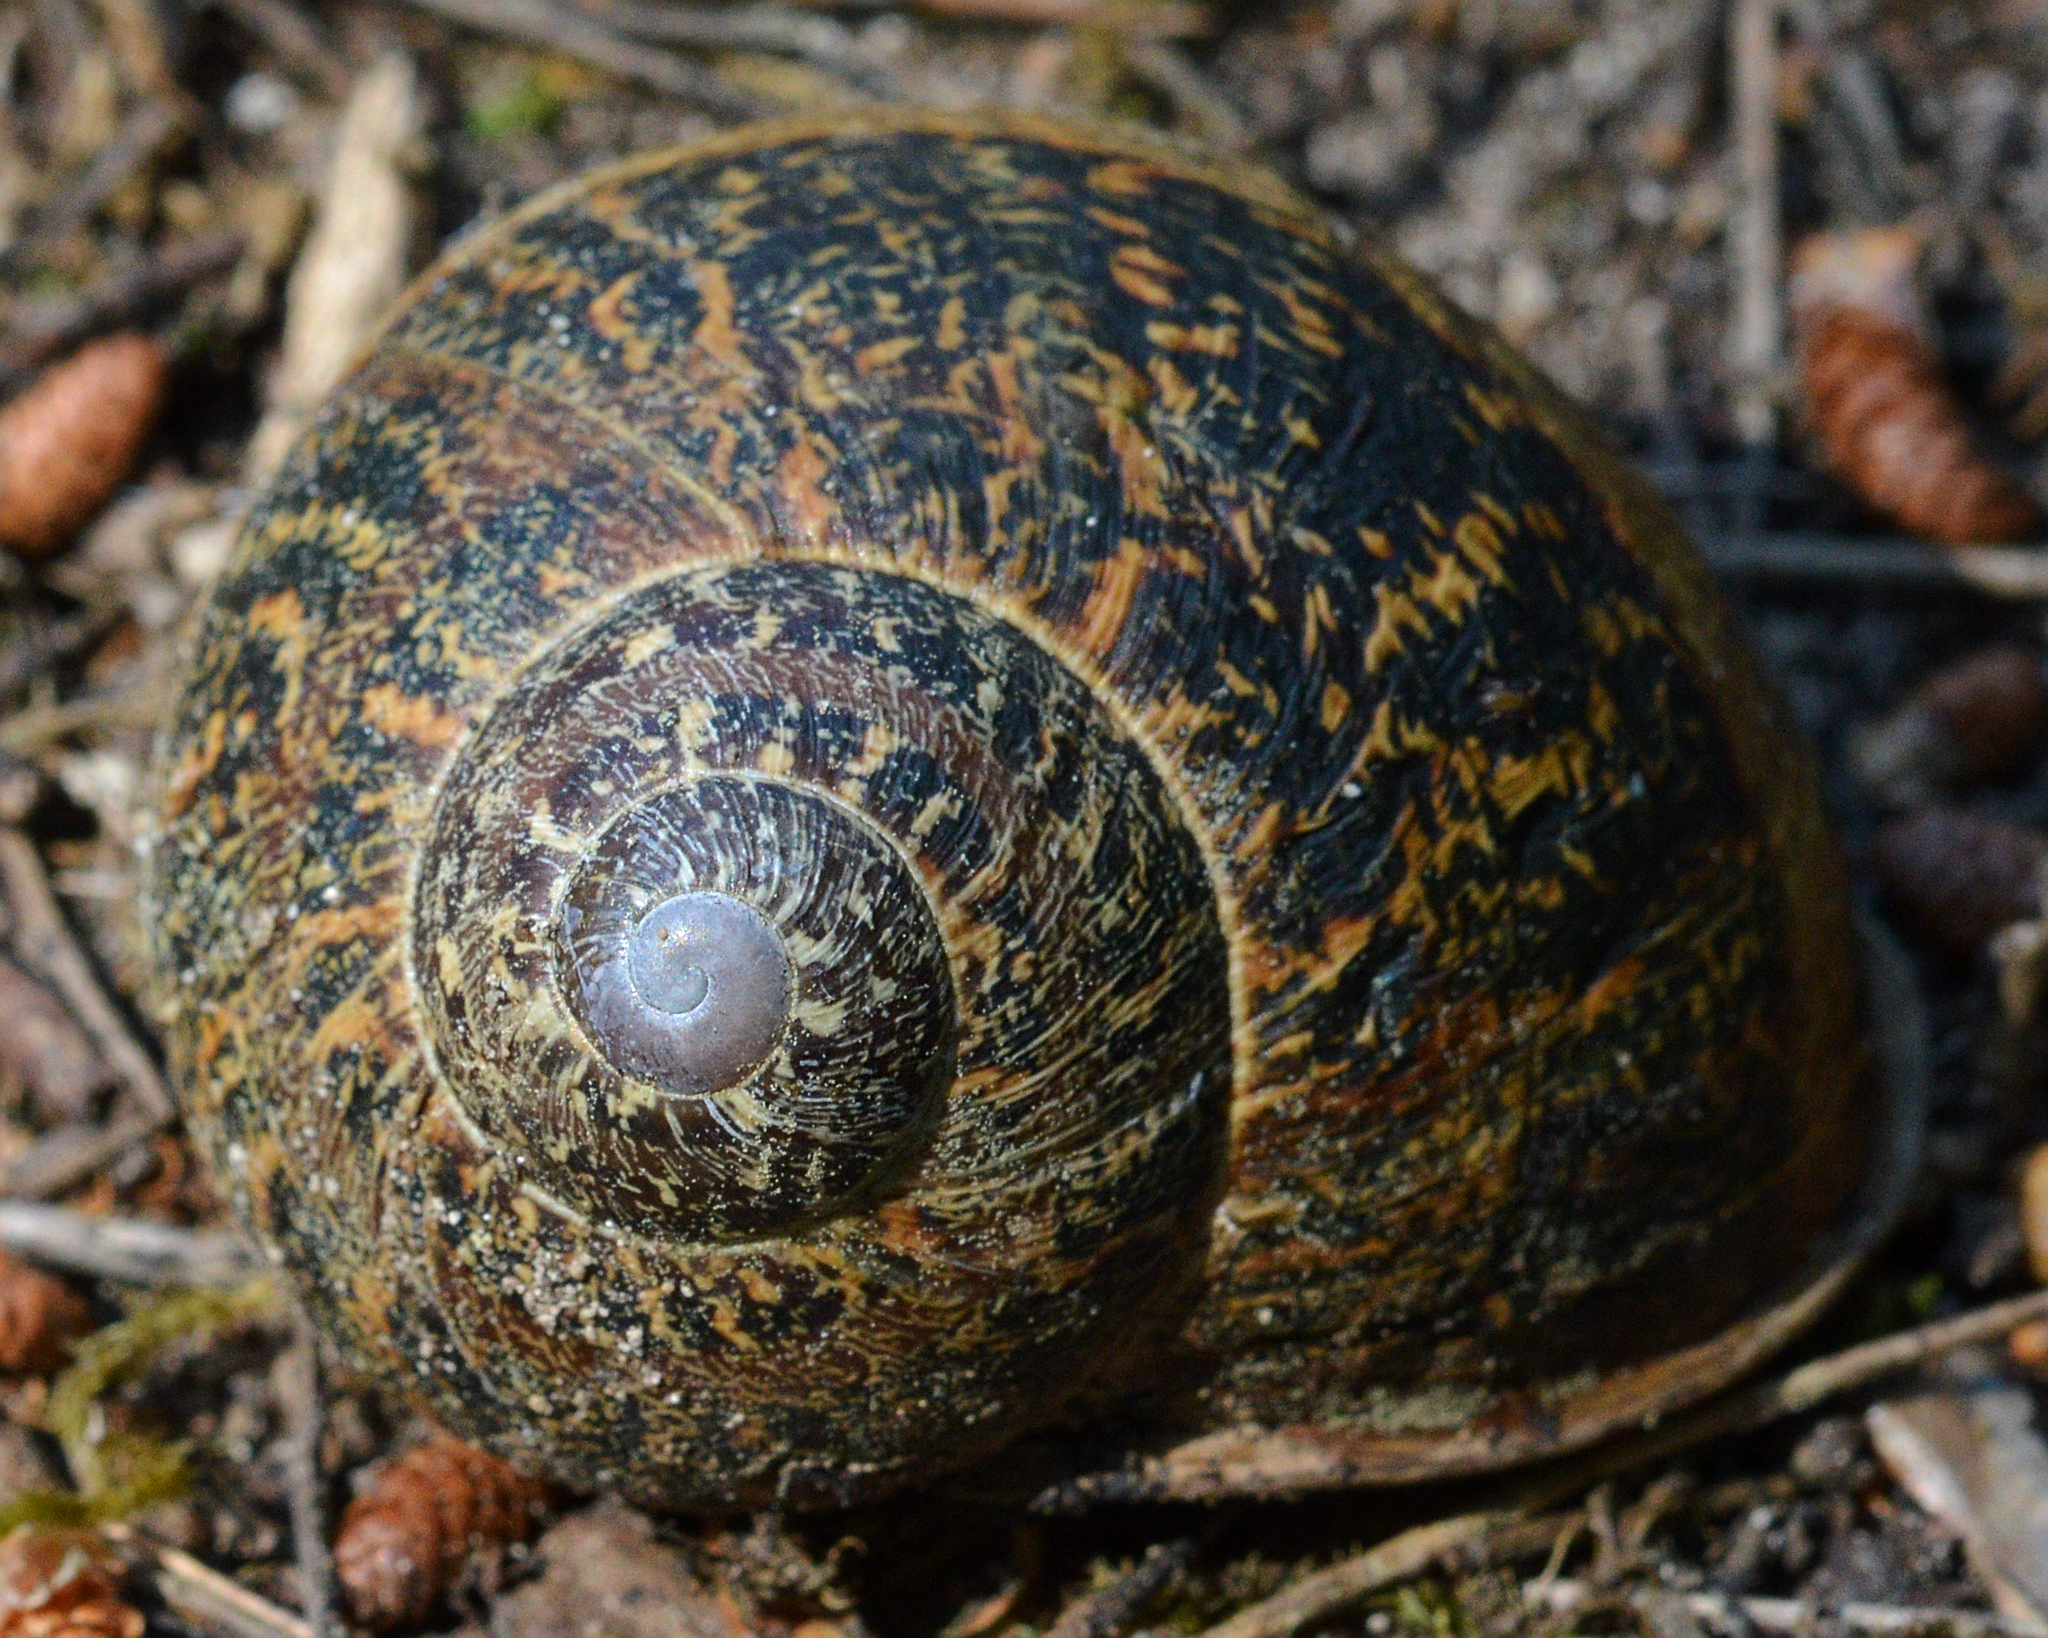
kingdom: Animalia
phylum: Mollusca
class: Gastropoda
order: Stylommatophora
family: Helicidae
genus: Cornu
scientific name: Cornu aspersum
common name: Brown garden snail
